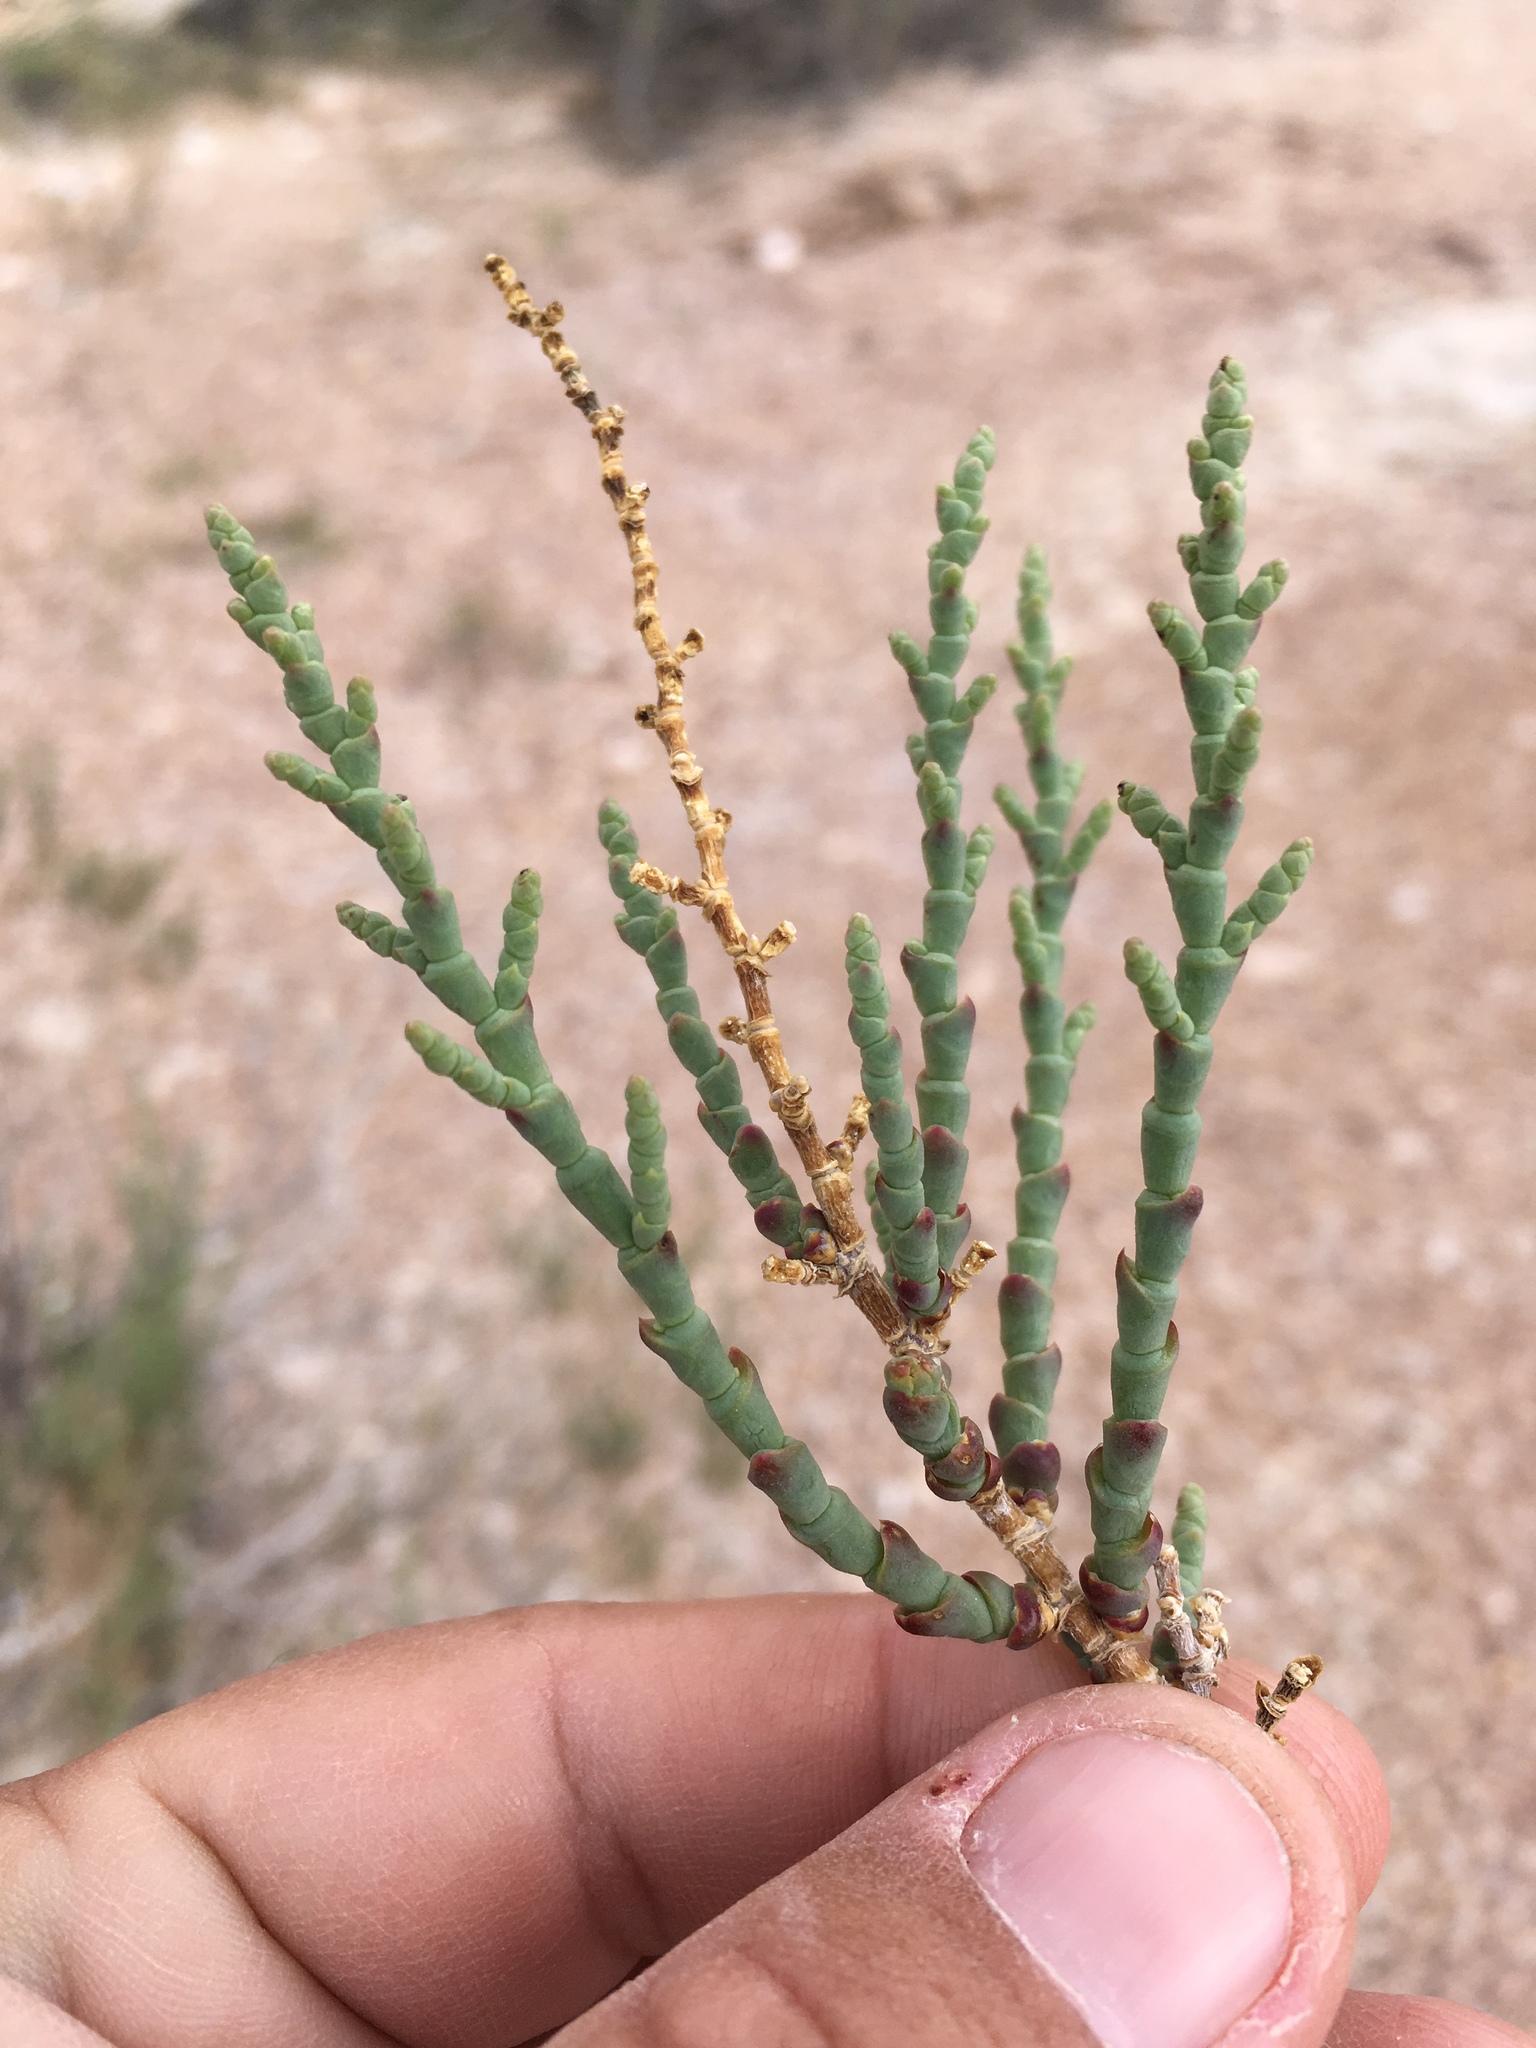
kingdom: Plantae
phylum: Tracheophyta
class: Magnoliopsida
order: Caryophyllales
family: Amaranthaceae
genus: Allenrolfea
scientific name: Allenrolfea occidentalis
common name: Iodine-bush
